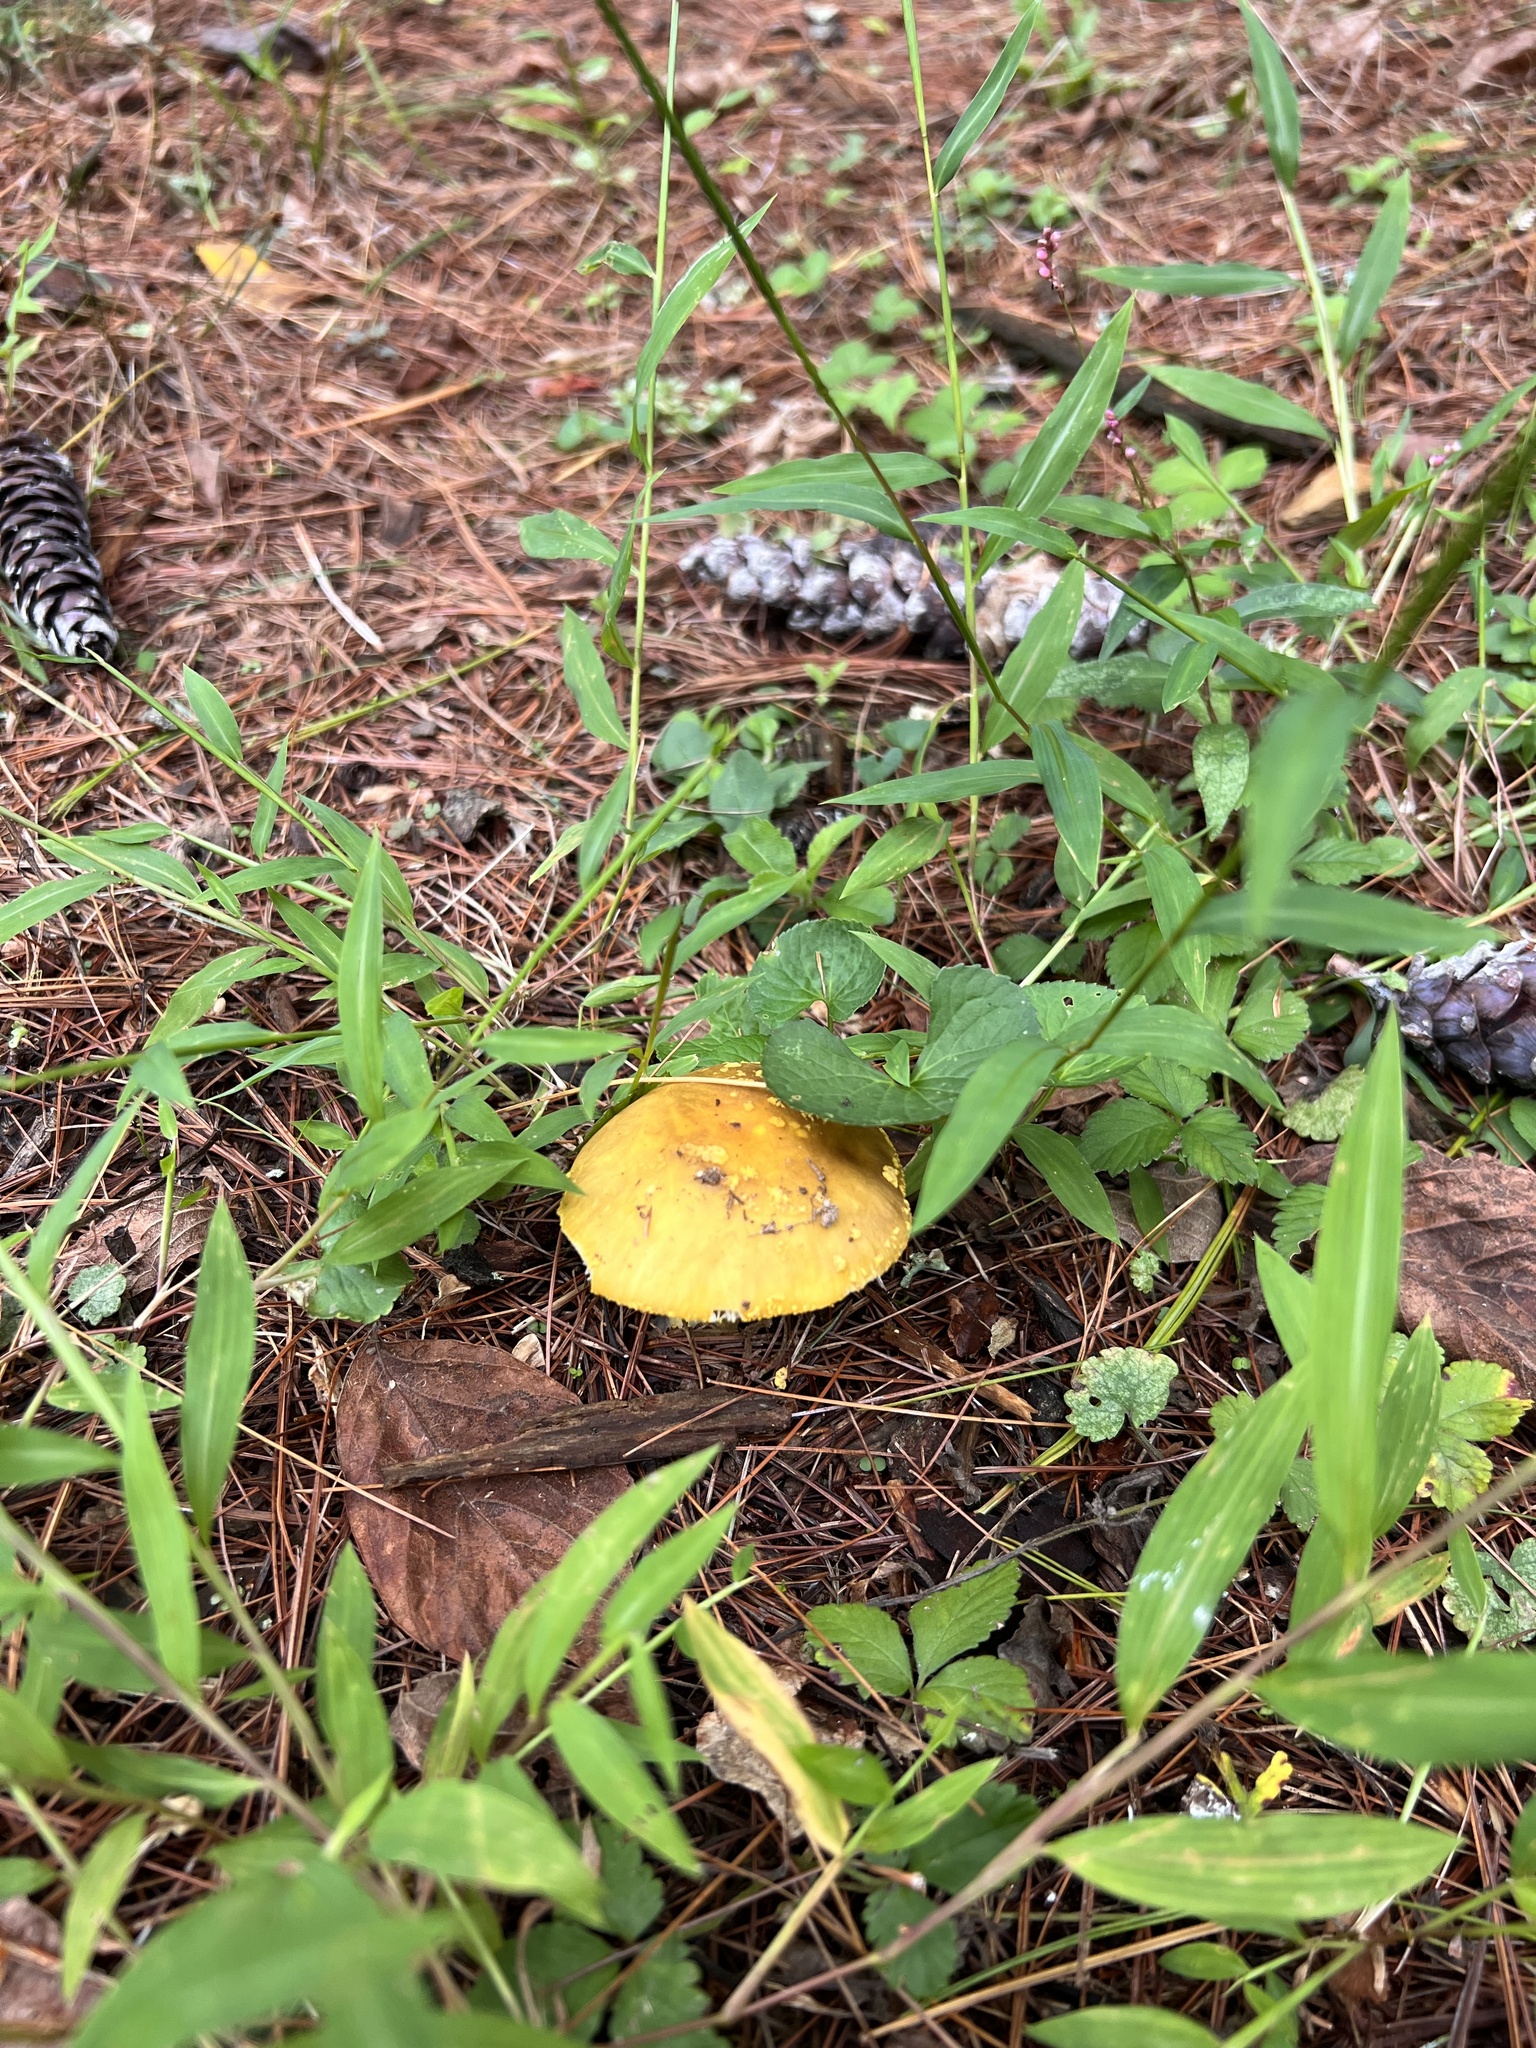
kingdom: Fungi
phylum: Basidiomycota
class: Agaricomycetes
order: Agaricales
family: Amanitaceae
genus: Amanita
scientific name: Amanita flavorubens
